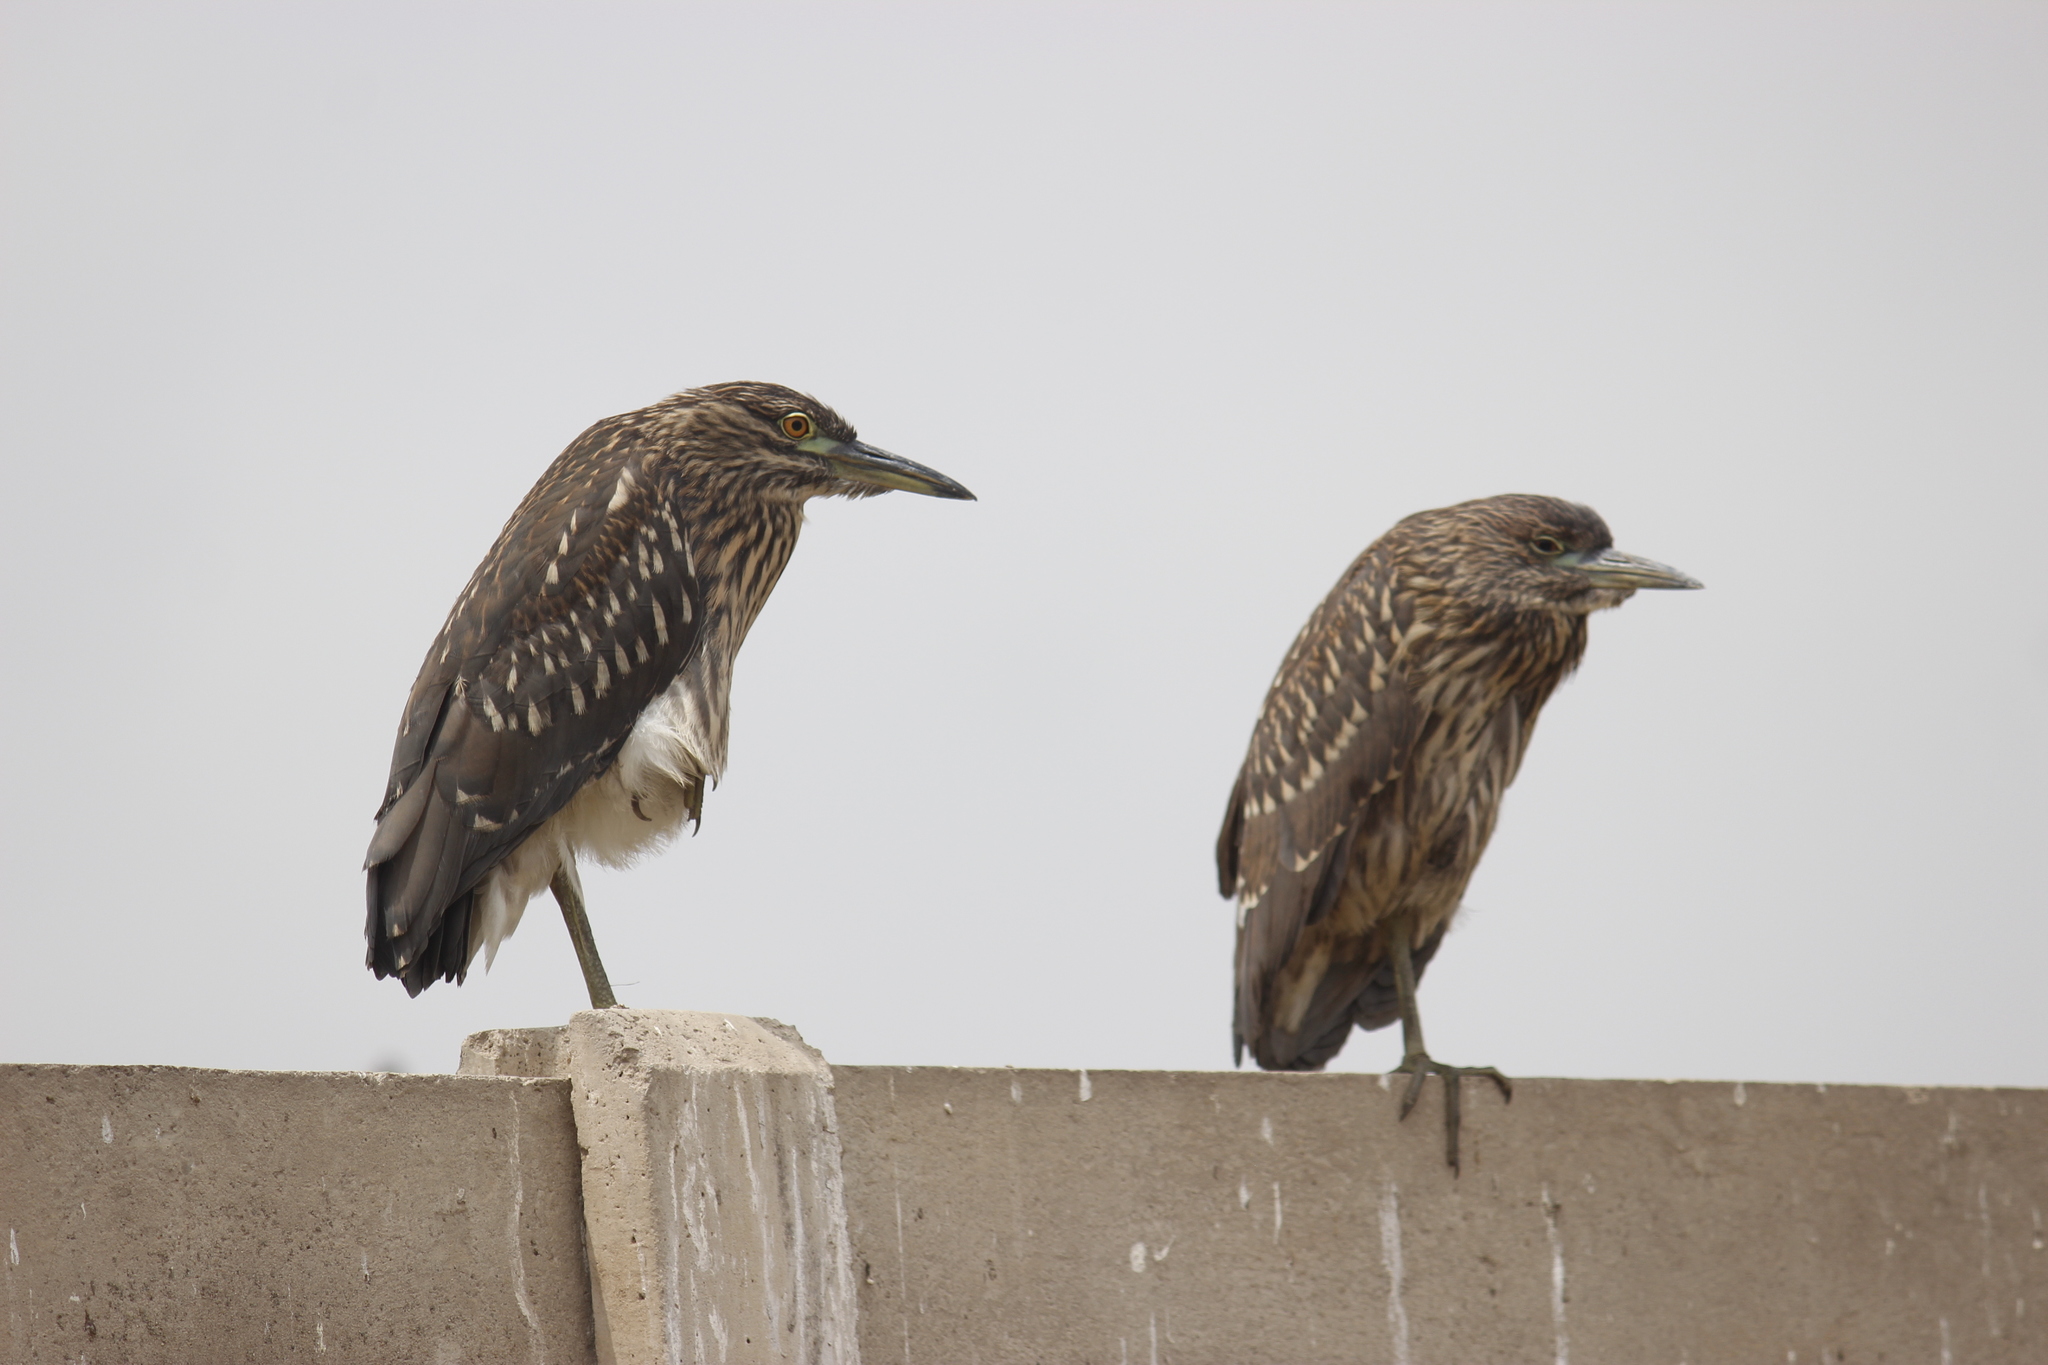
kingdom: Animalia
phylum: Chordata
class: Aves
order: Pelecaniformes
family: Ardeidae
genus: Nycticorax
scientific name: Nycticorax nycticorax
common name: Black-crowned night heron
